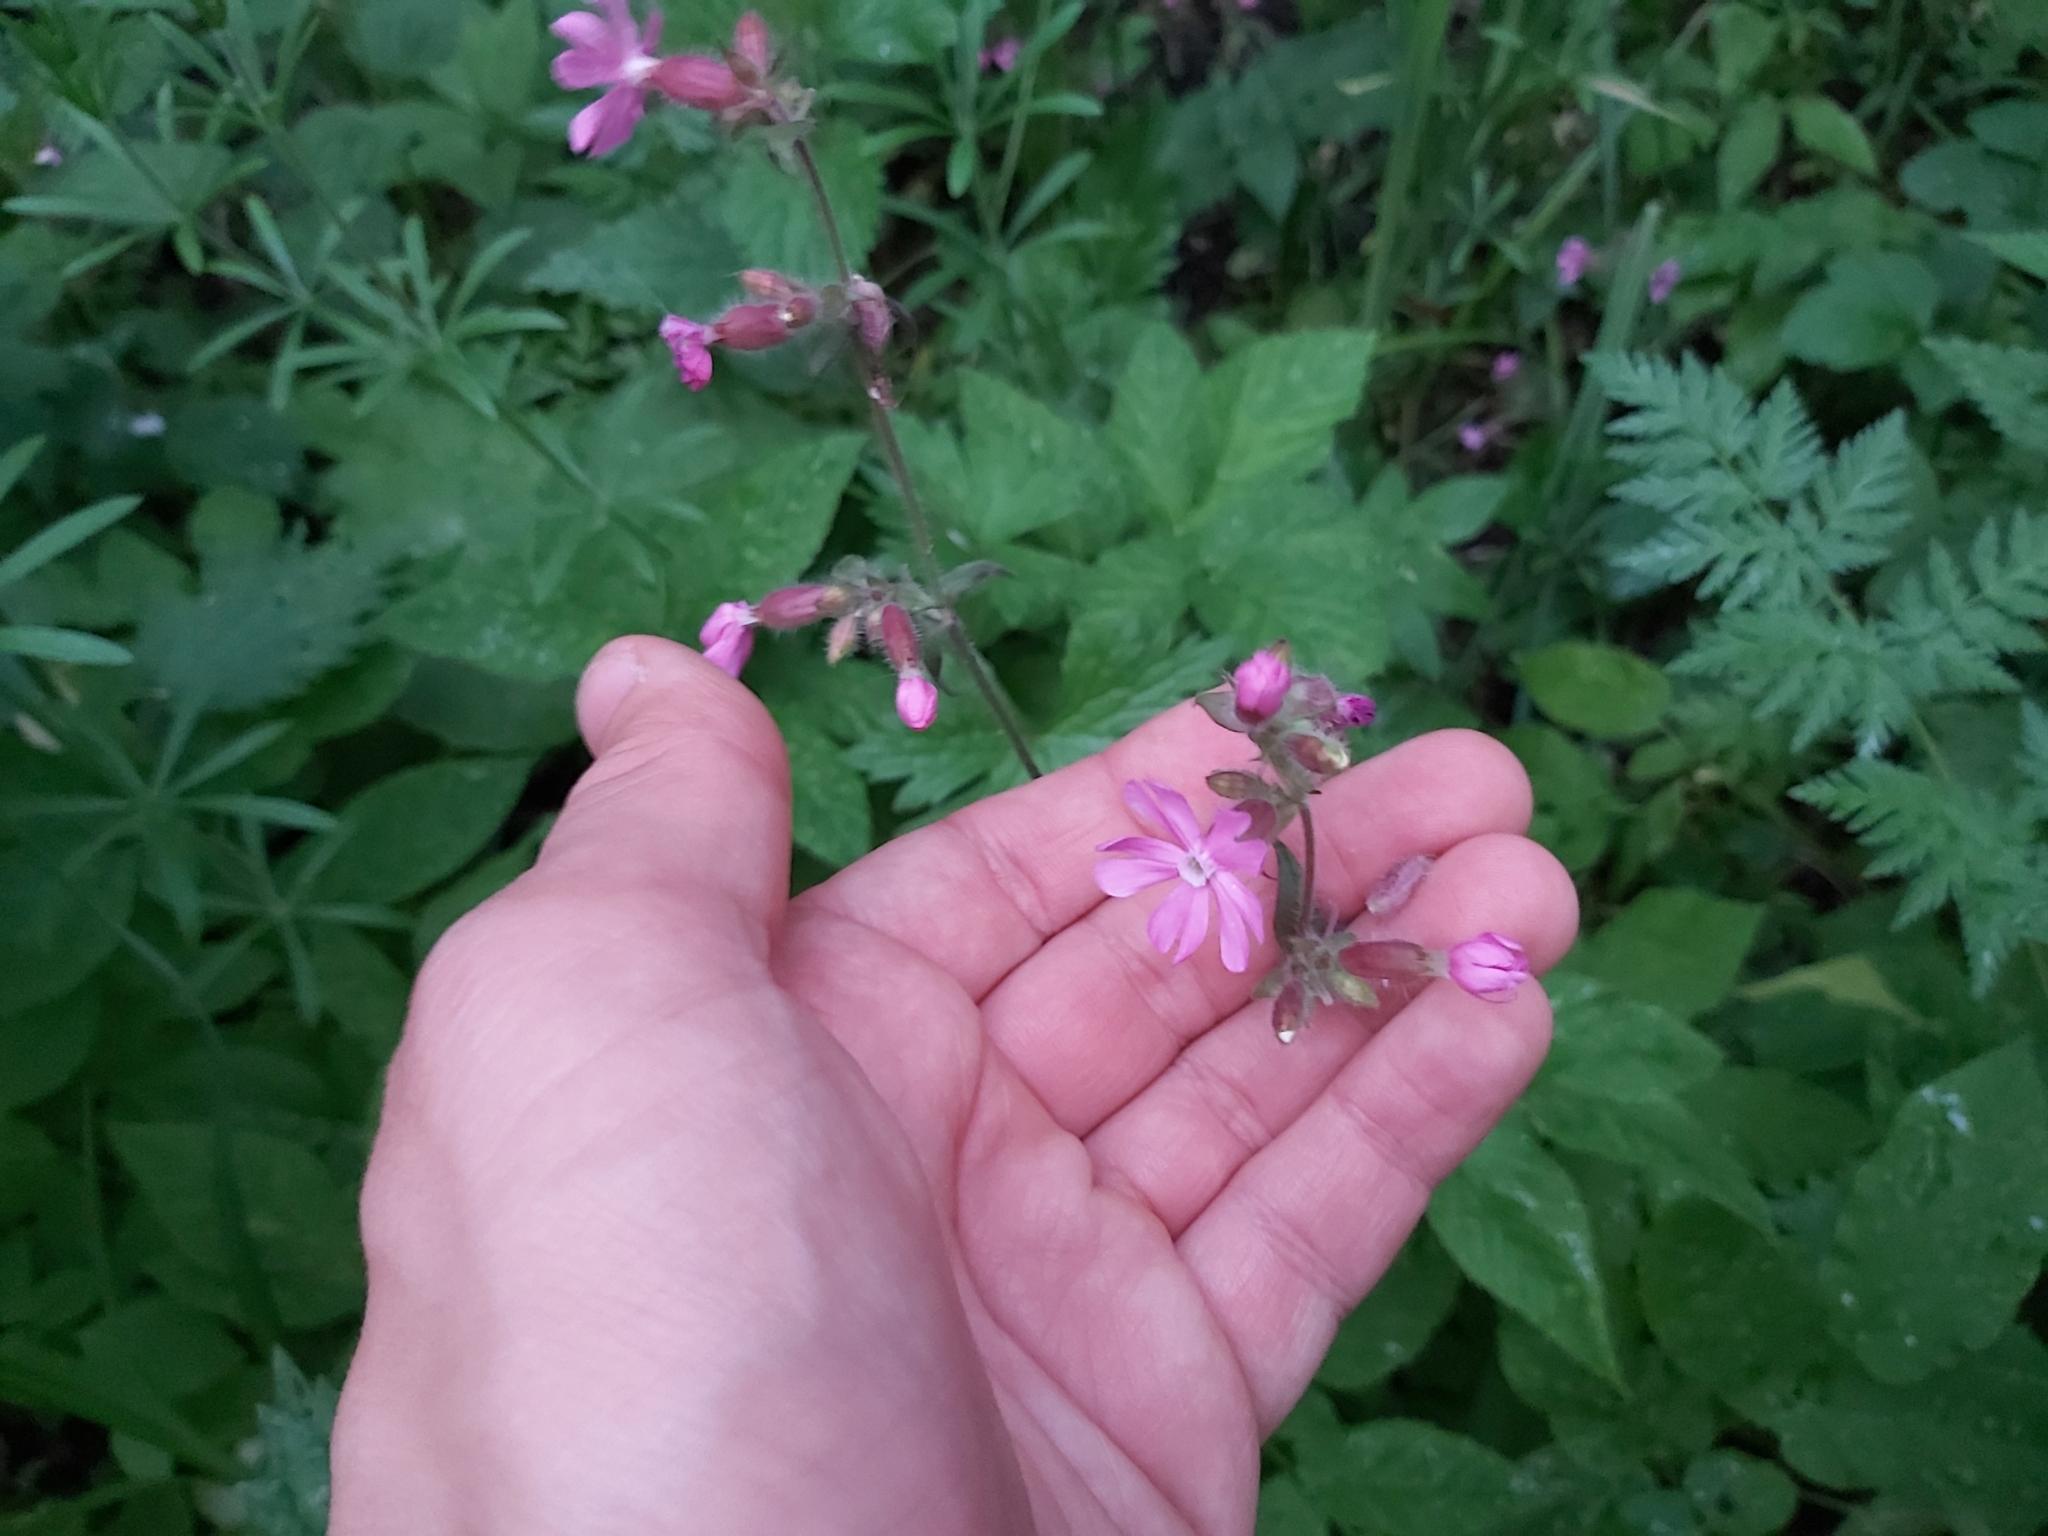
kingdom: Plantae
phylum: Tracheophyta
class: Magnoliopsida
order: Caryophyllales
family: Caryophyllaceae
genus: Silene
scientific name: Silene dioica
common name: Red campion
